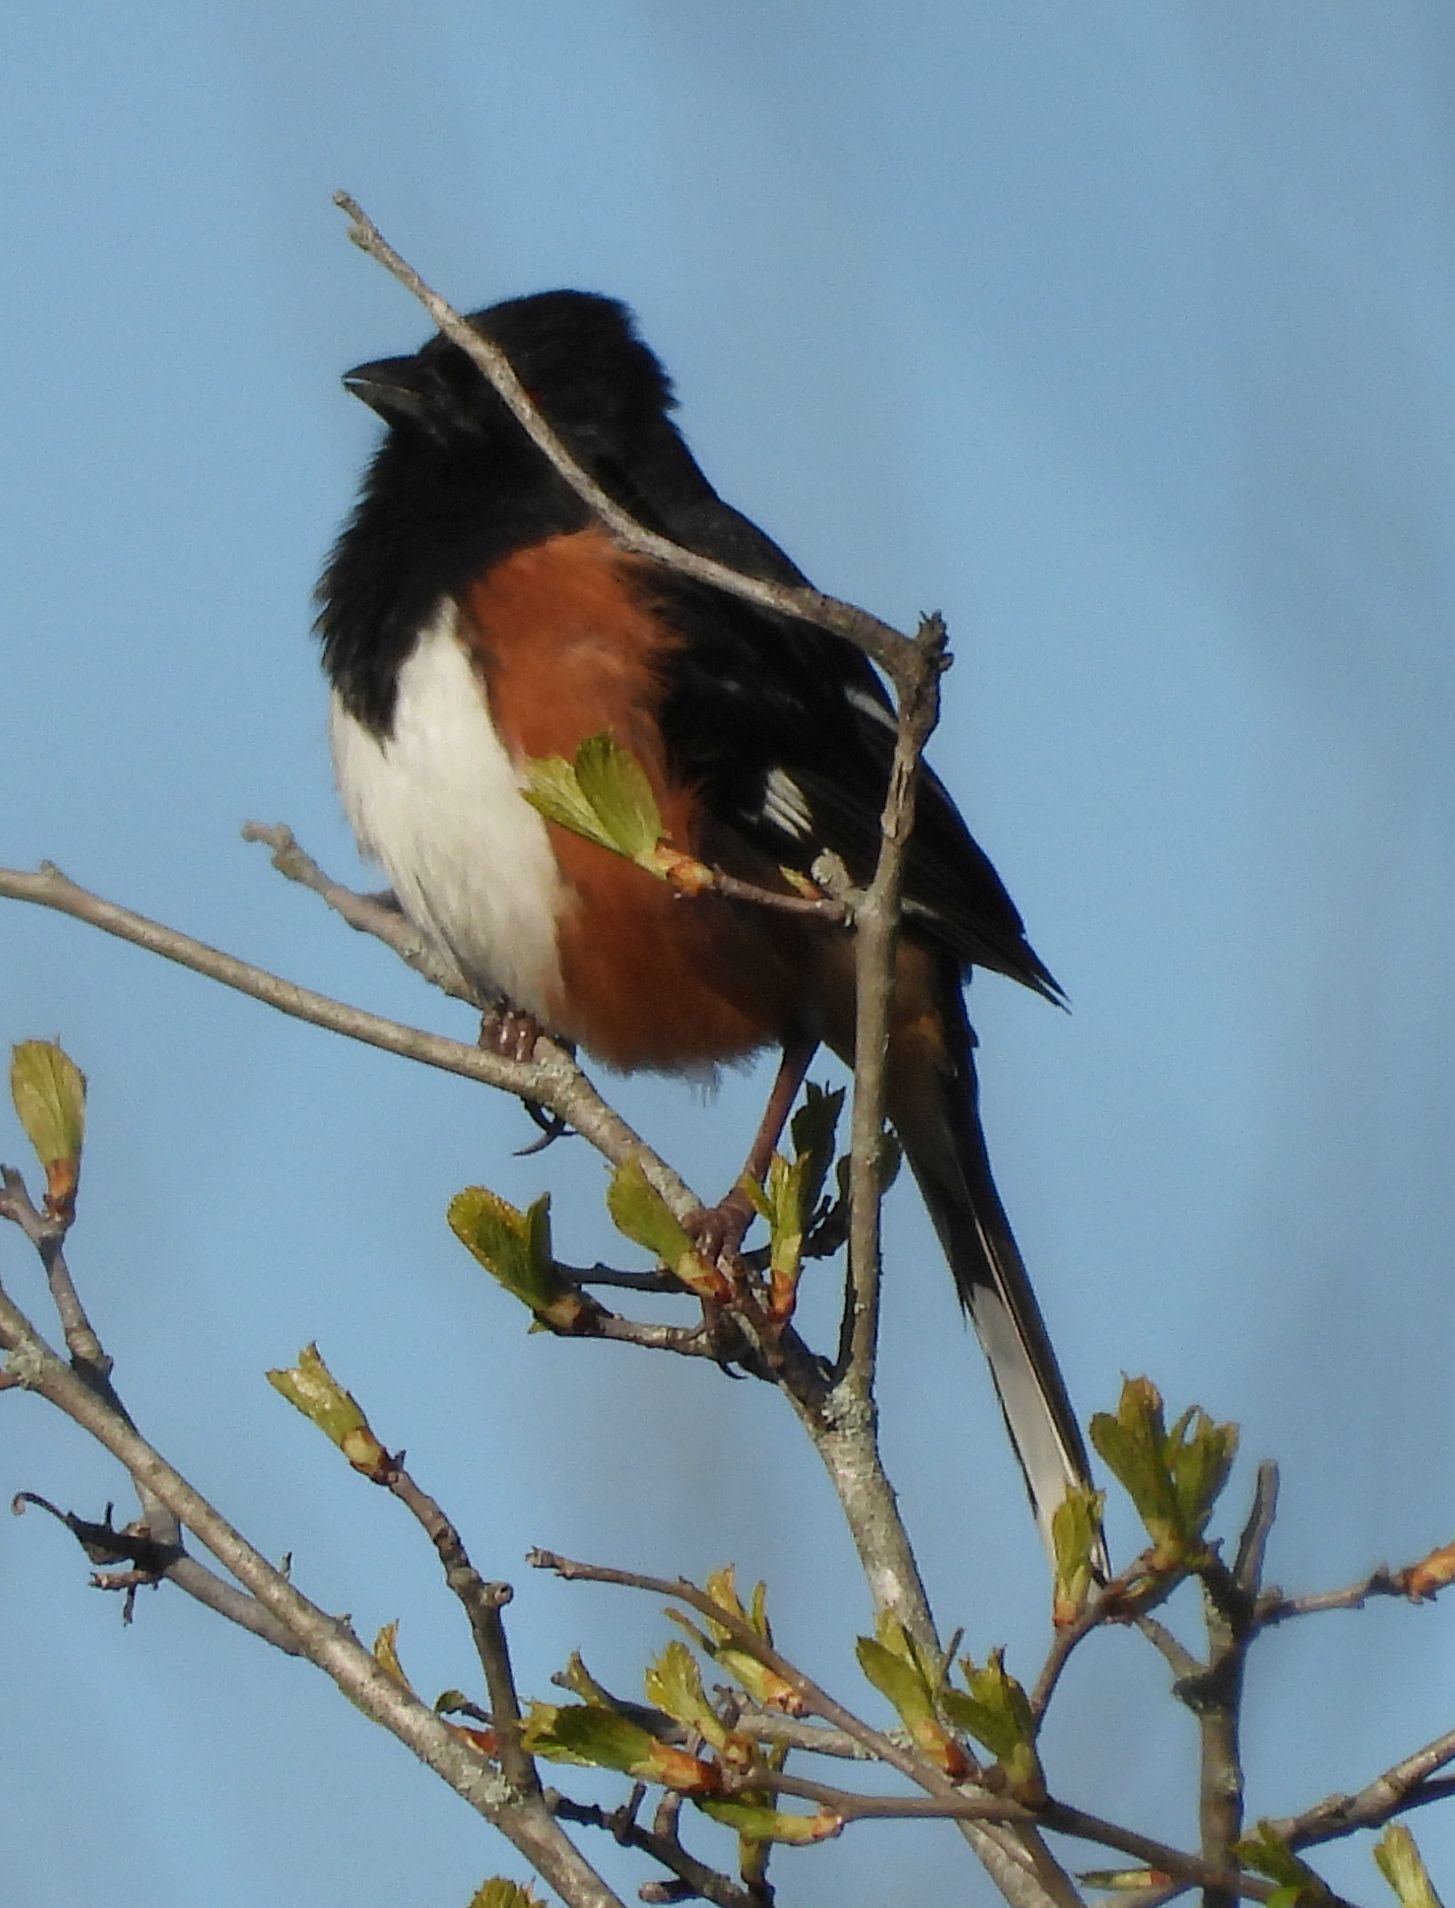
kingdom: Animalia
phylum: Chordata
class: Aves
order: Passeriformes
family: Passerellidae
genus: Pipilo
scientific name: Pipilo erythrophthalmus
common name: Eastern towhee
